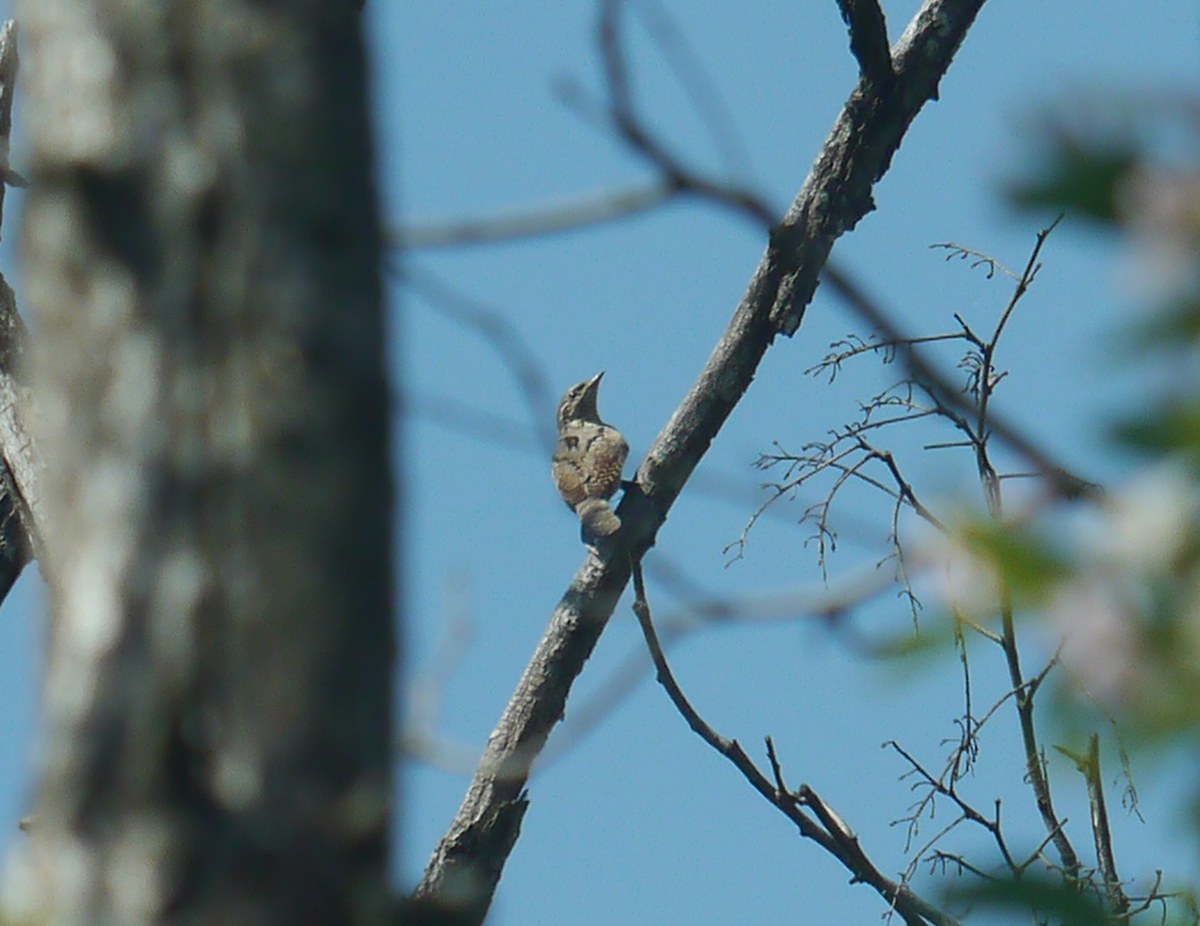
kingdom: Animalia
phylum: Chordata
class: Aves
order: Piciformes
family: Picidae
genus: Jynx
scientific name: Jynx torquilla
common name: Eurasian wryneck
